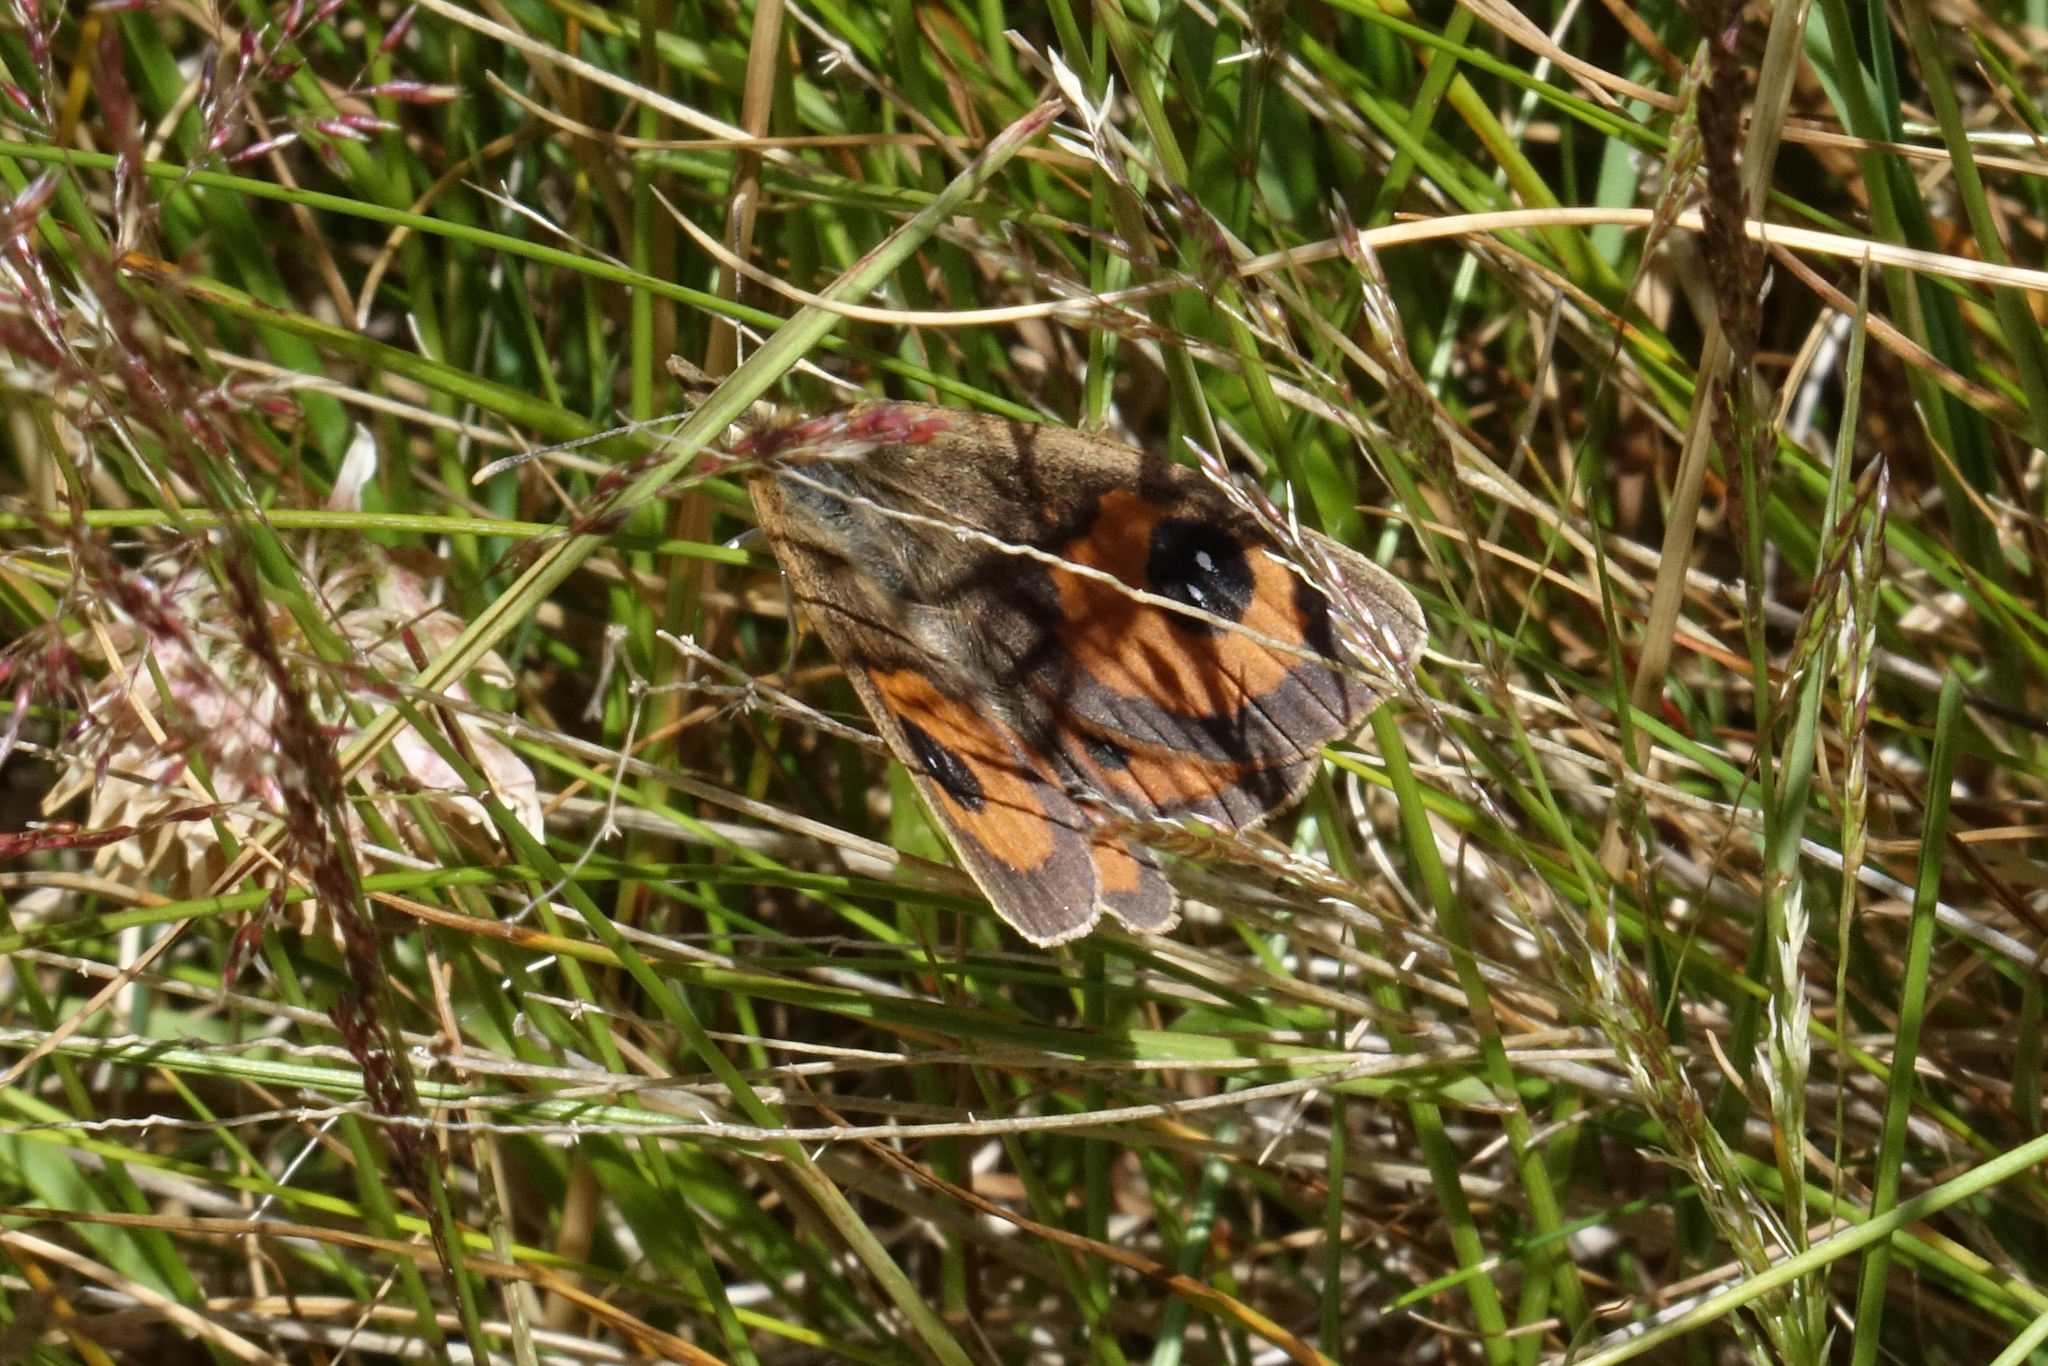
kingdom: Animalia
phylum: Arthropoda
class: Insecta
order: Lepidoptera
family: Nymphalidae
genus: Argyrophenga
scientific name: Argyrophenga antipodum
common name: Common tussock butterfly
